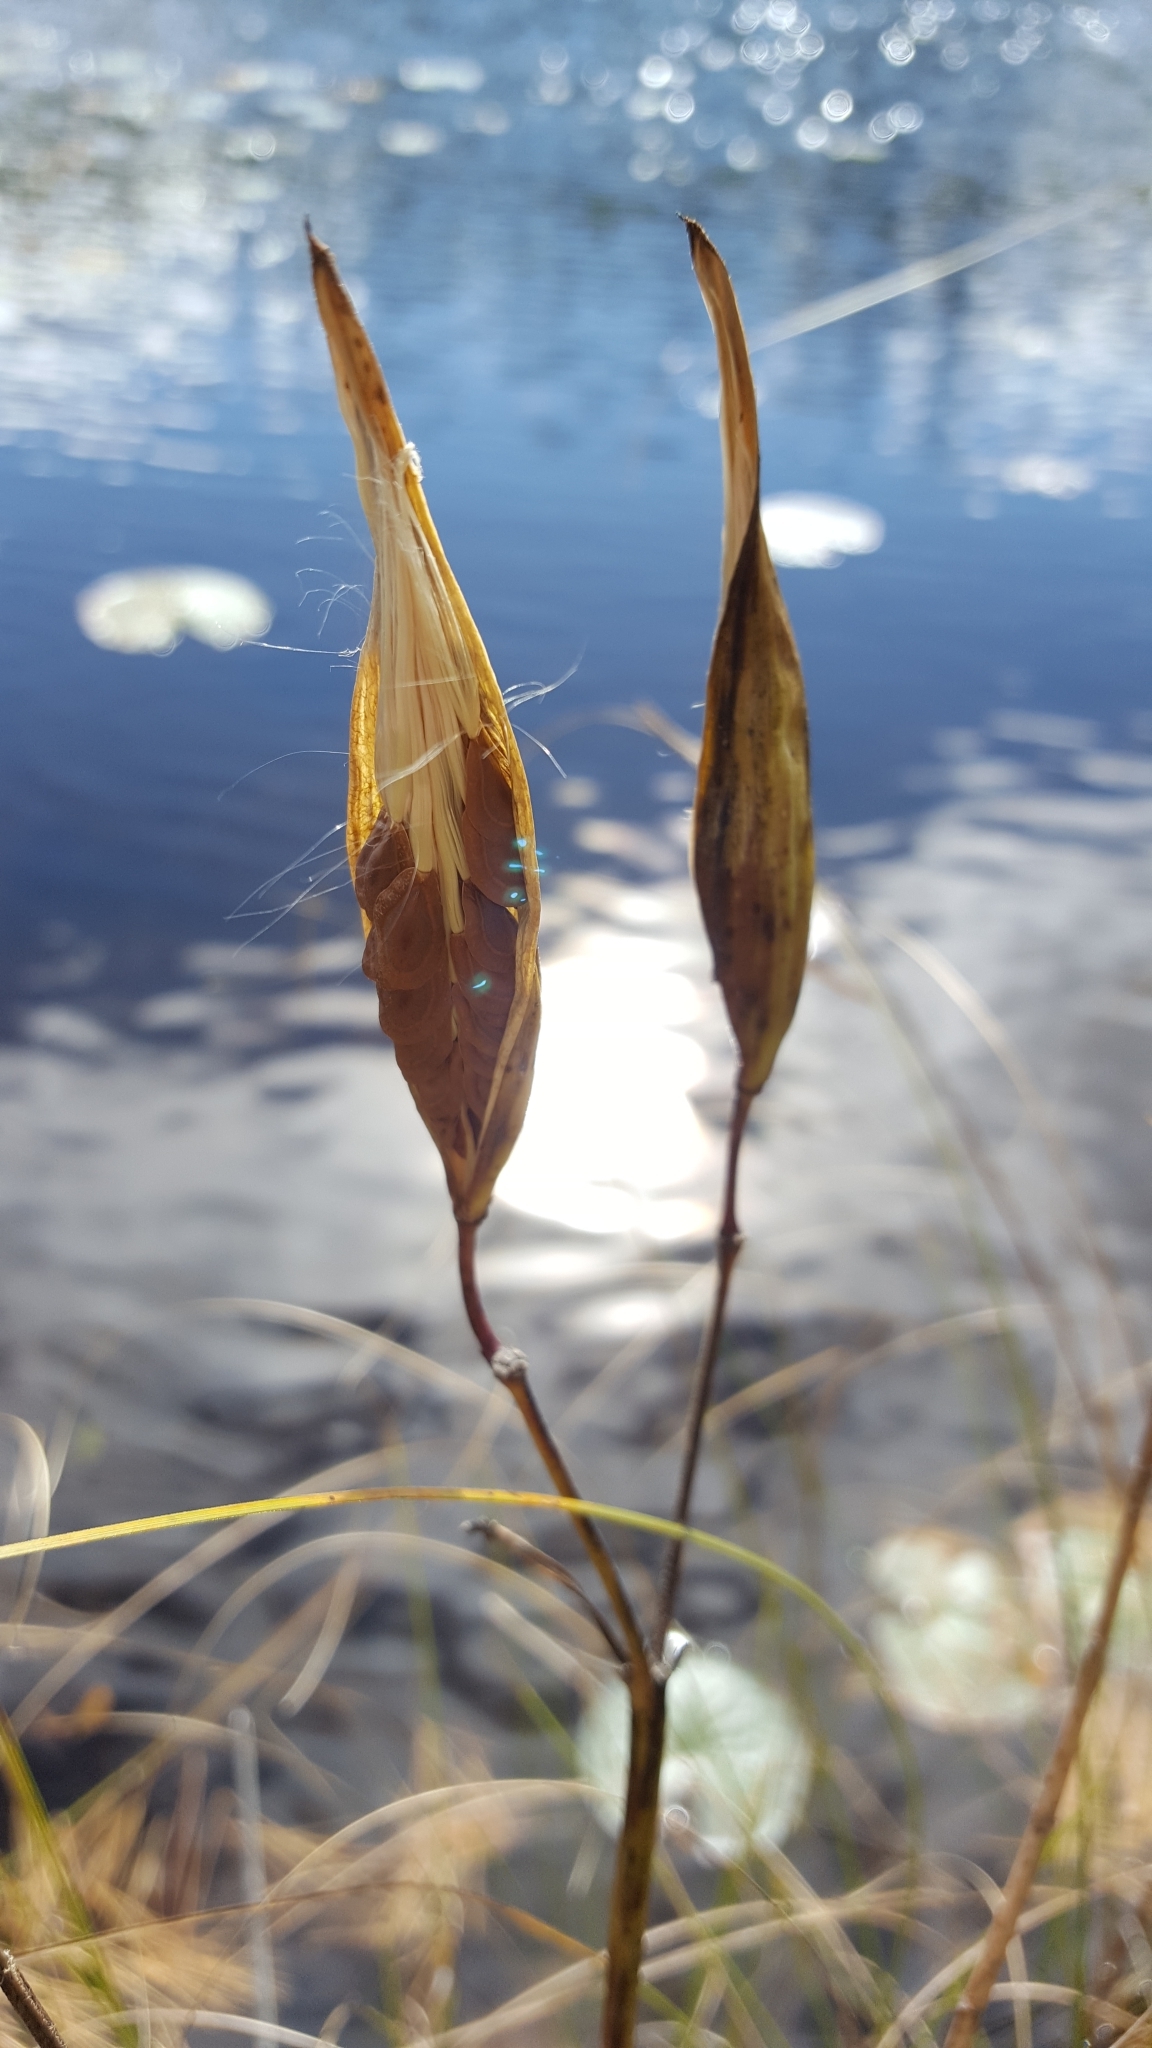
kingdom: Plantae
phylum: Tracheophyta
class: Magnoliopsida
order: Gentianales
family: Apocynaceae
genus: Asclepias
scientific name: Asclepias incarnata
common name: Swamp milkweed
